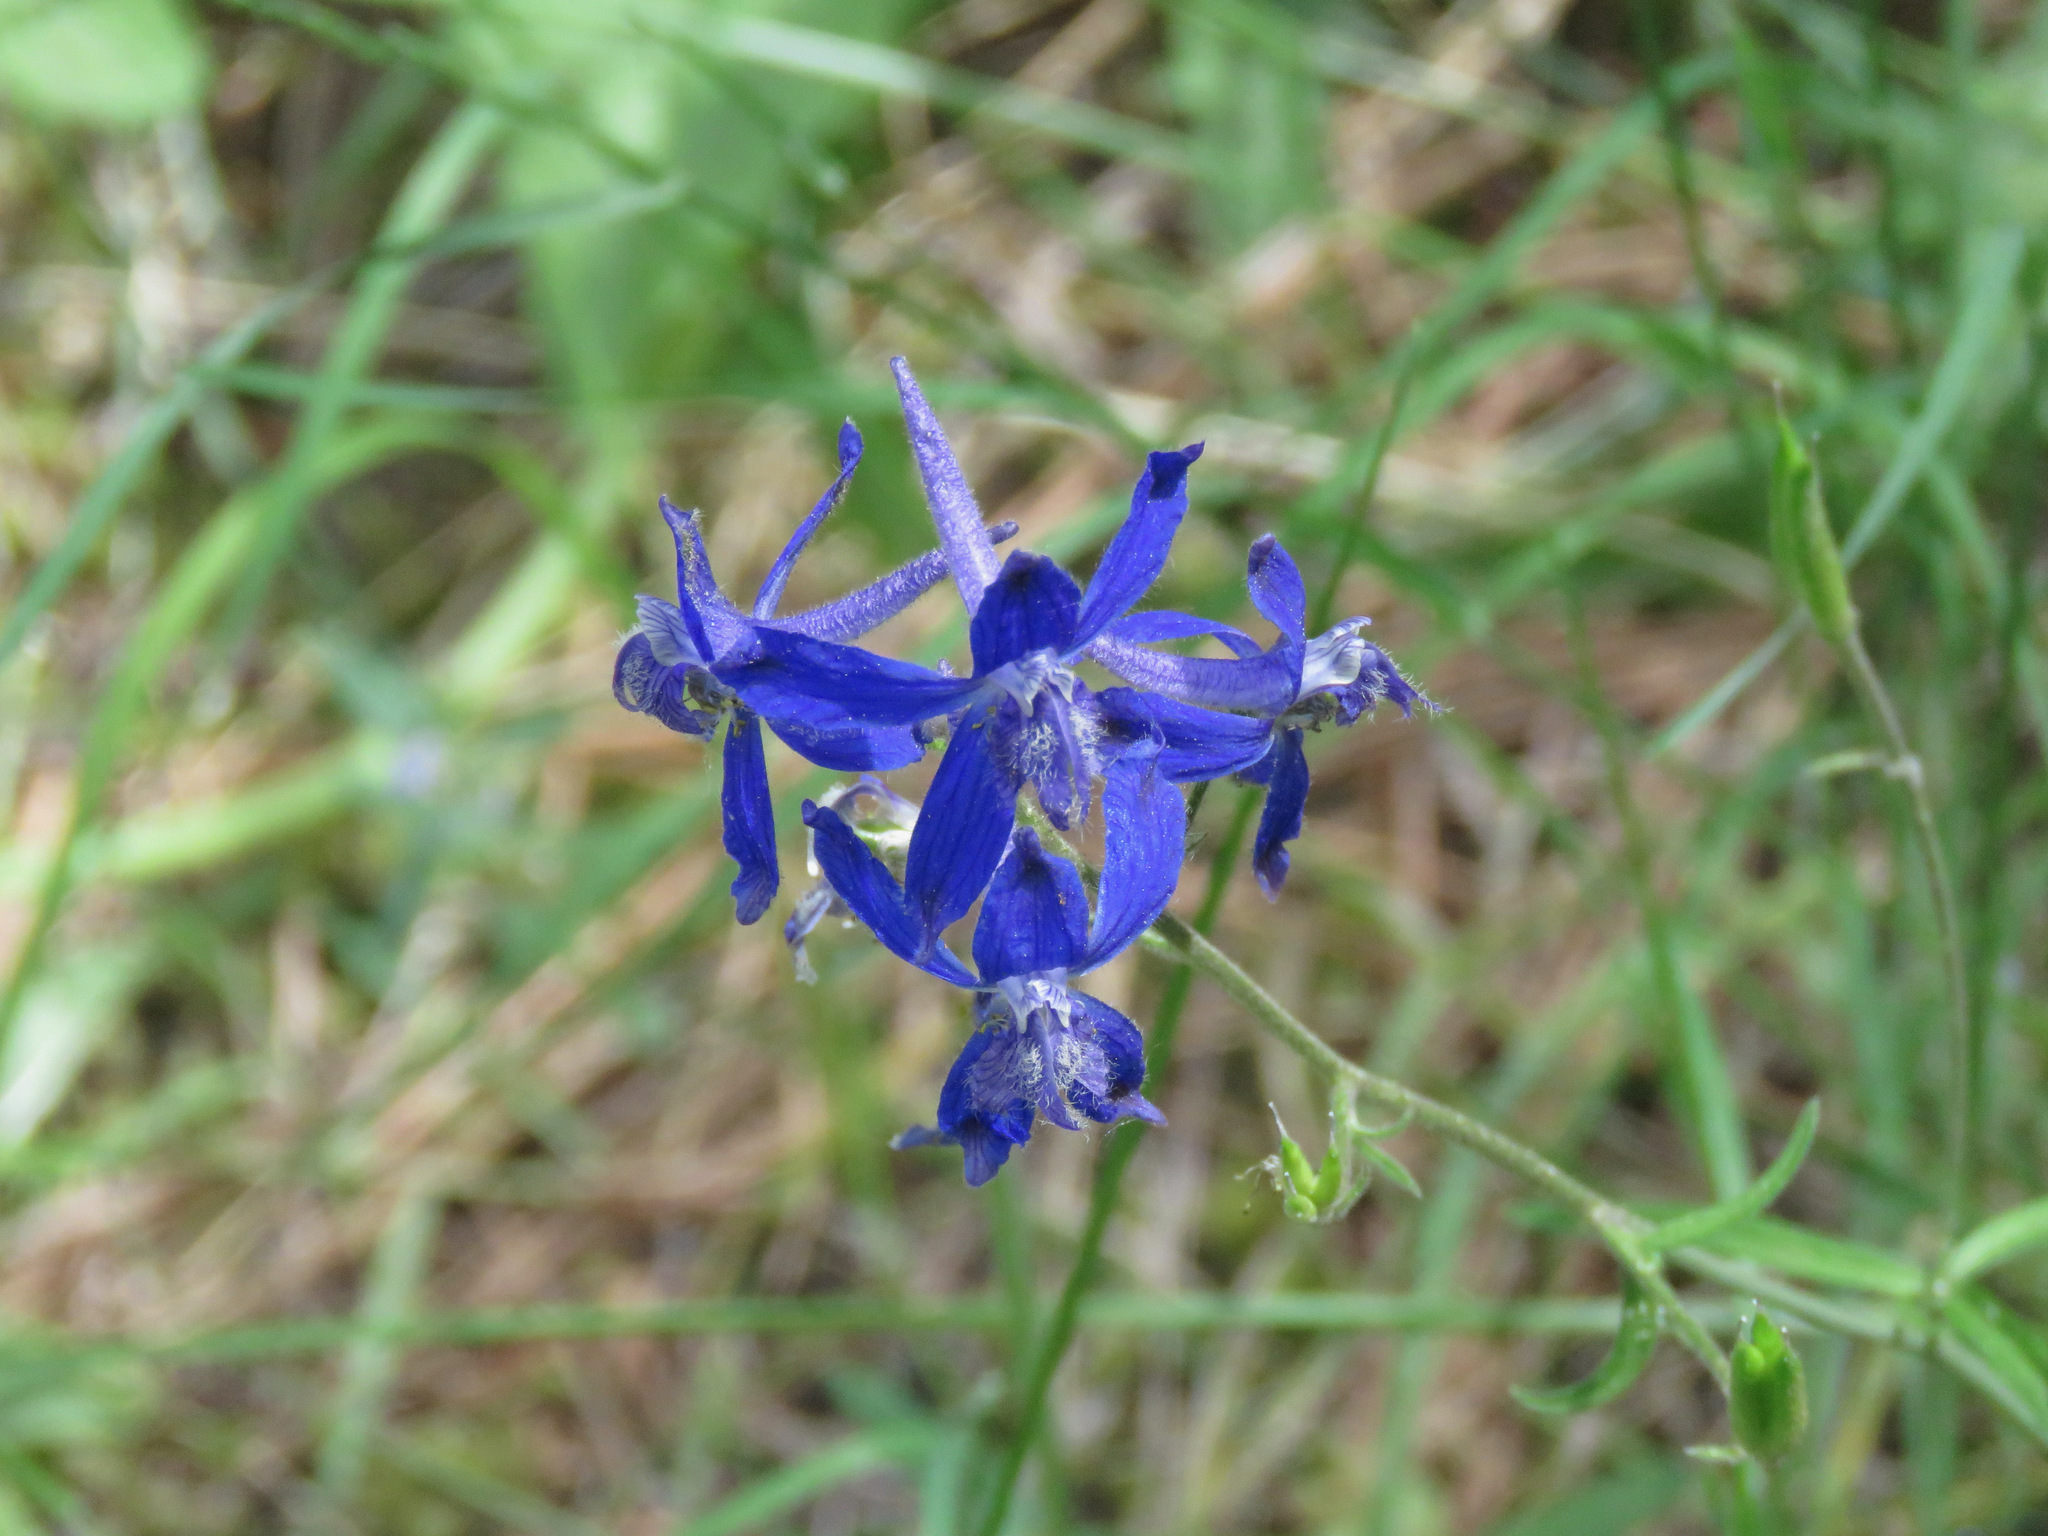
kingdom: Plantae
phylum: Tracheophyta
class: Magnoliopsida
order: Ranunculales
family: Ranunculaceae
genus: Delphinium
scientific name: Delphinium nuttallianum
